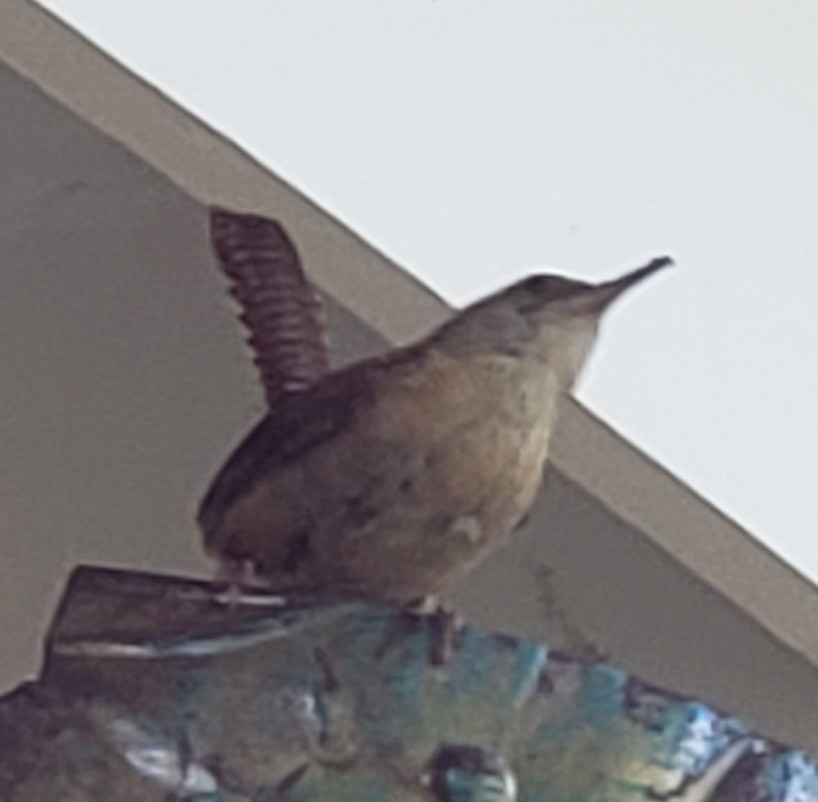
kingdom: Animalia
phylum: Chordata
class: Aves
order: Passeriformes
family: Troglodytidae
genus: Thryothorus
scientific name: Thryothorus ludovicianus
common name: Carolina wren
